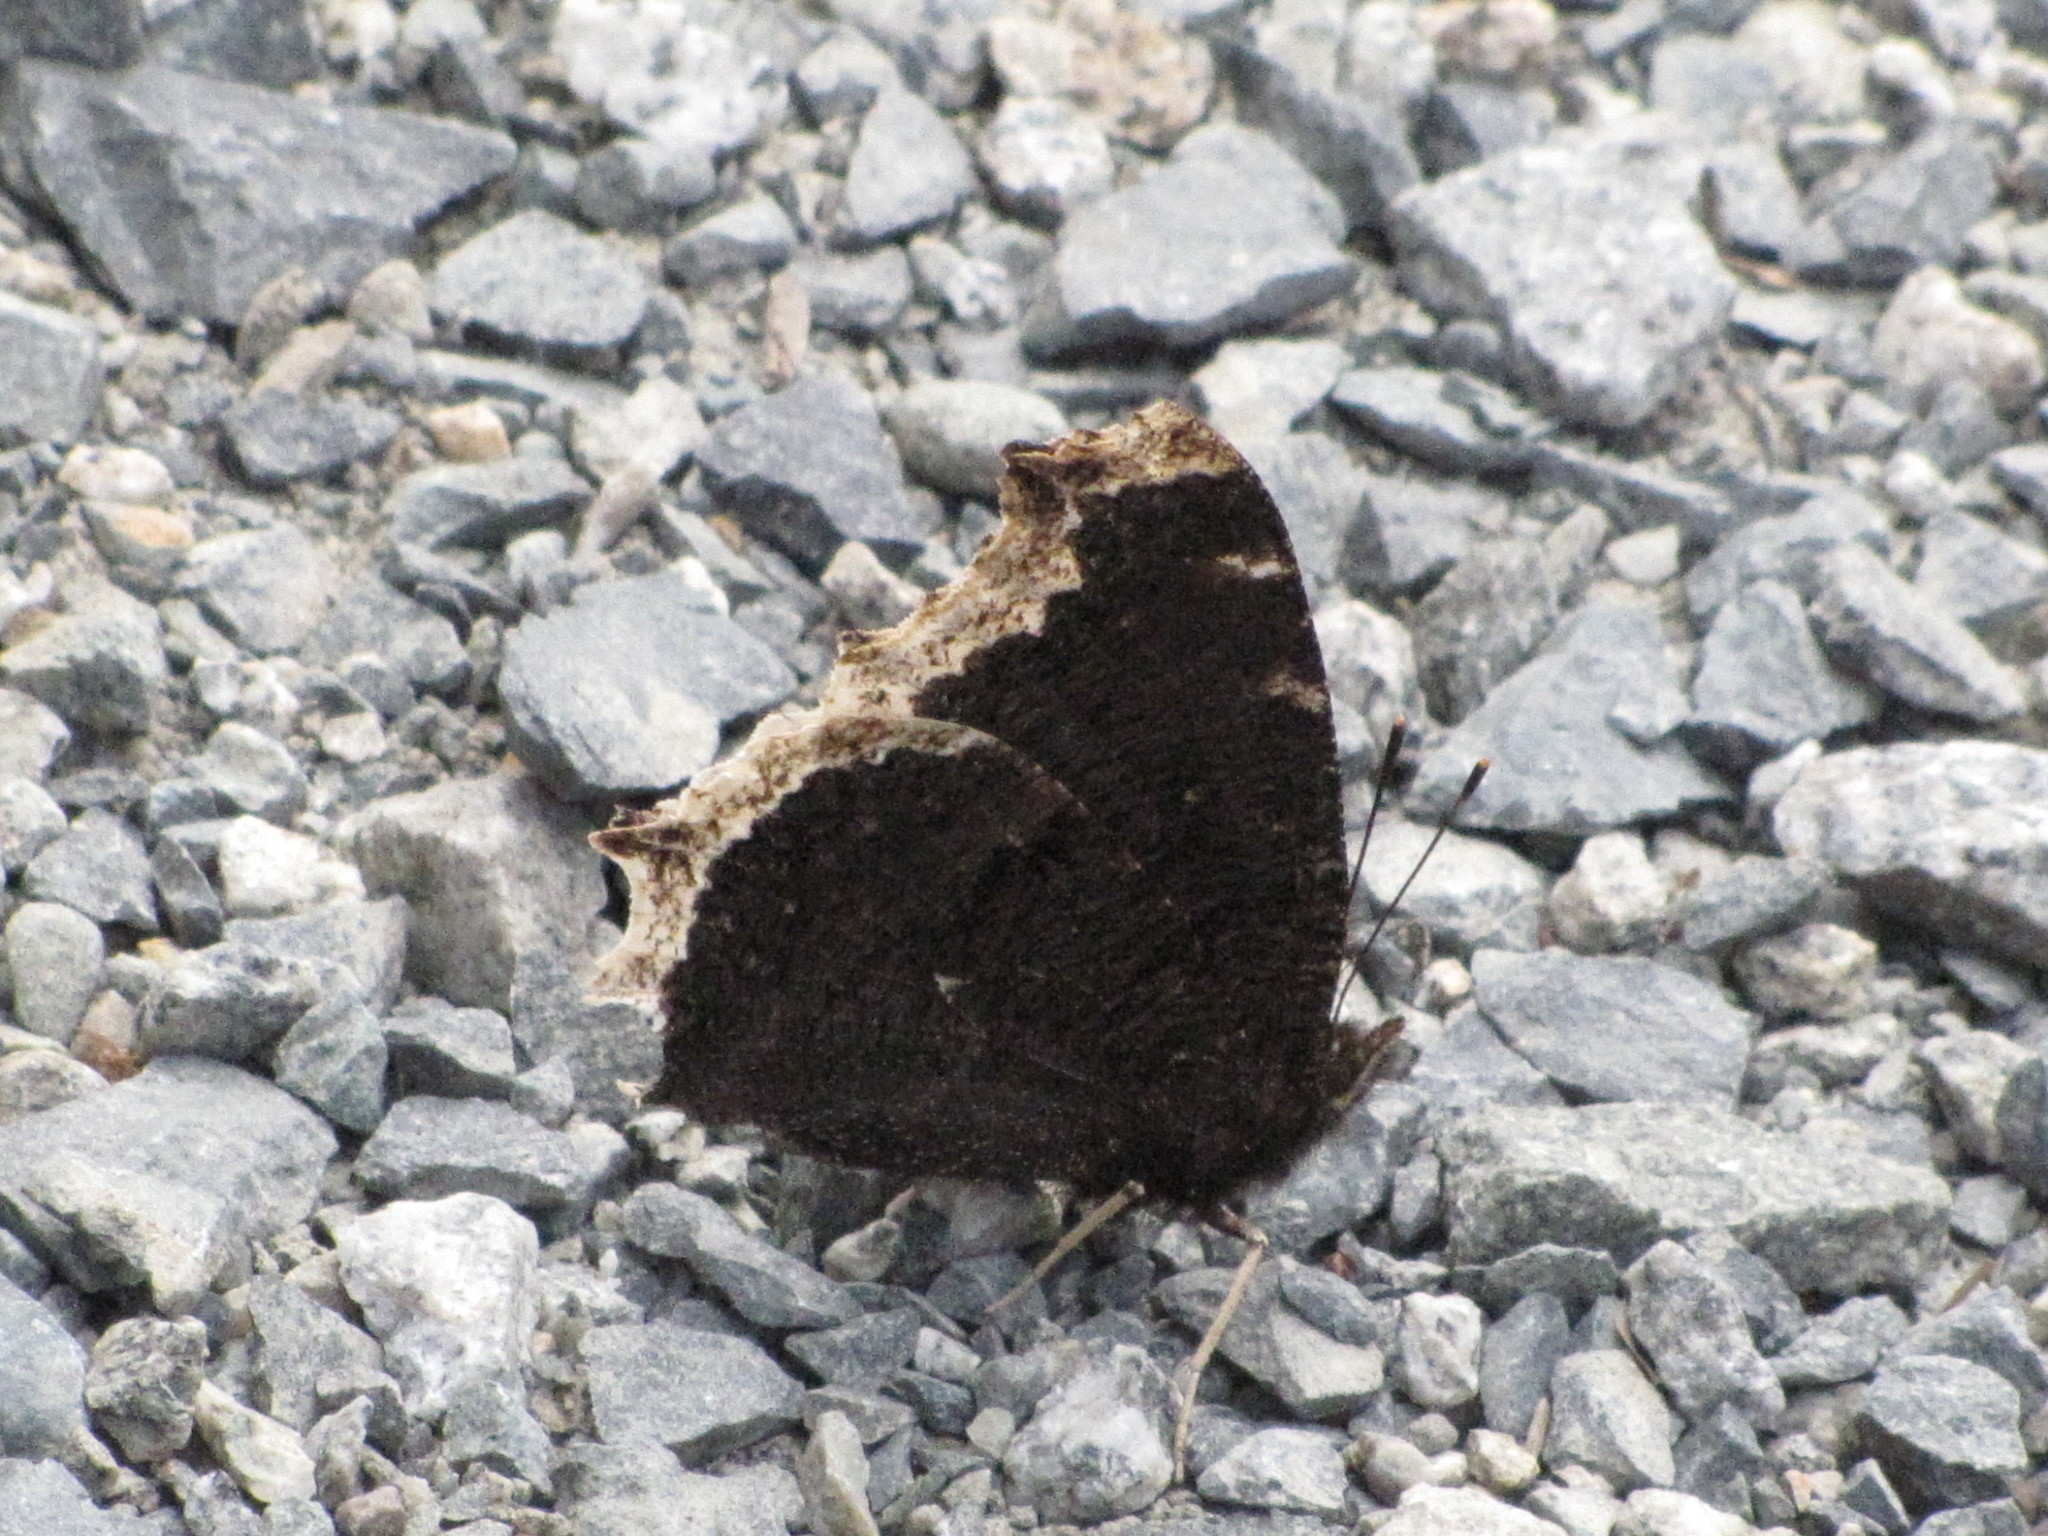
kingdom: Animalia
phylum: Arthropoda
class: Insecta
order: Lepidoptera
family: Nymphalidae
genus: Nymphalis
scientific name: Nymphalis antiopa
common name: Camberwell beauty
